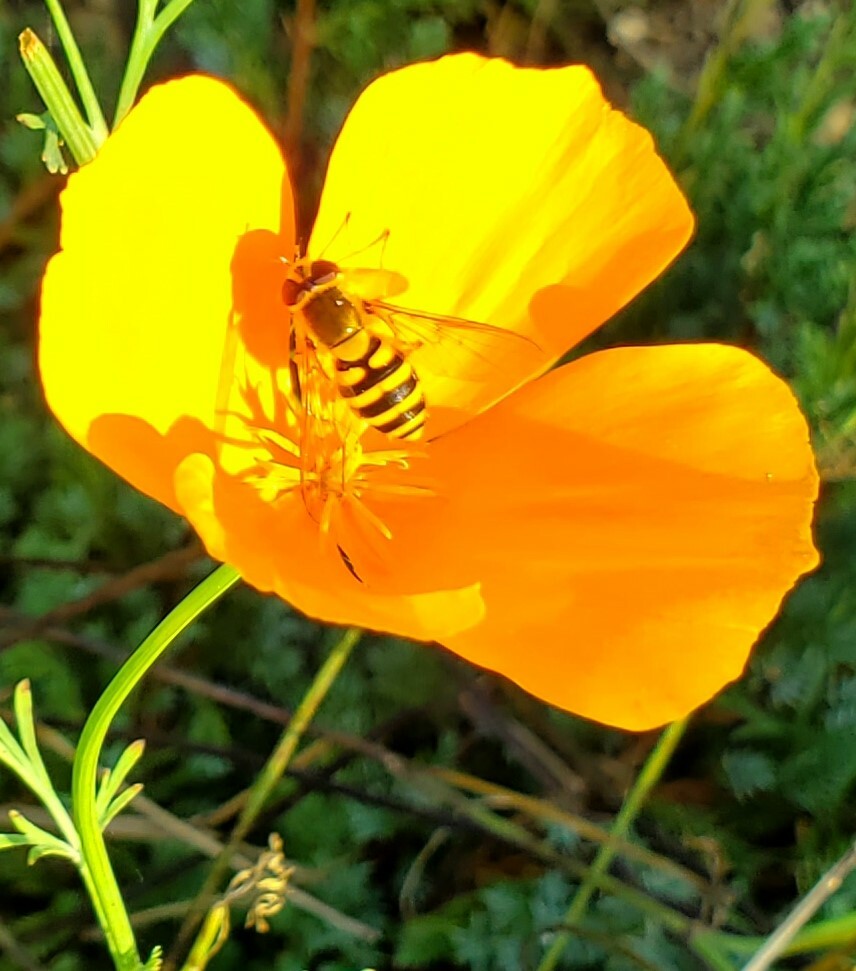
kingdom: Animalia
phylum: Arthropoda
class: Insecta
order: Diptera
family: Syrphidae
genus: Syrphus
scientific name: Syrphus
